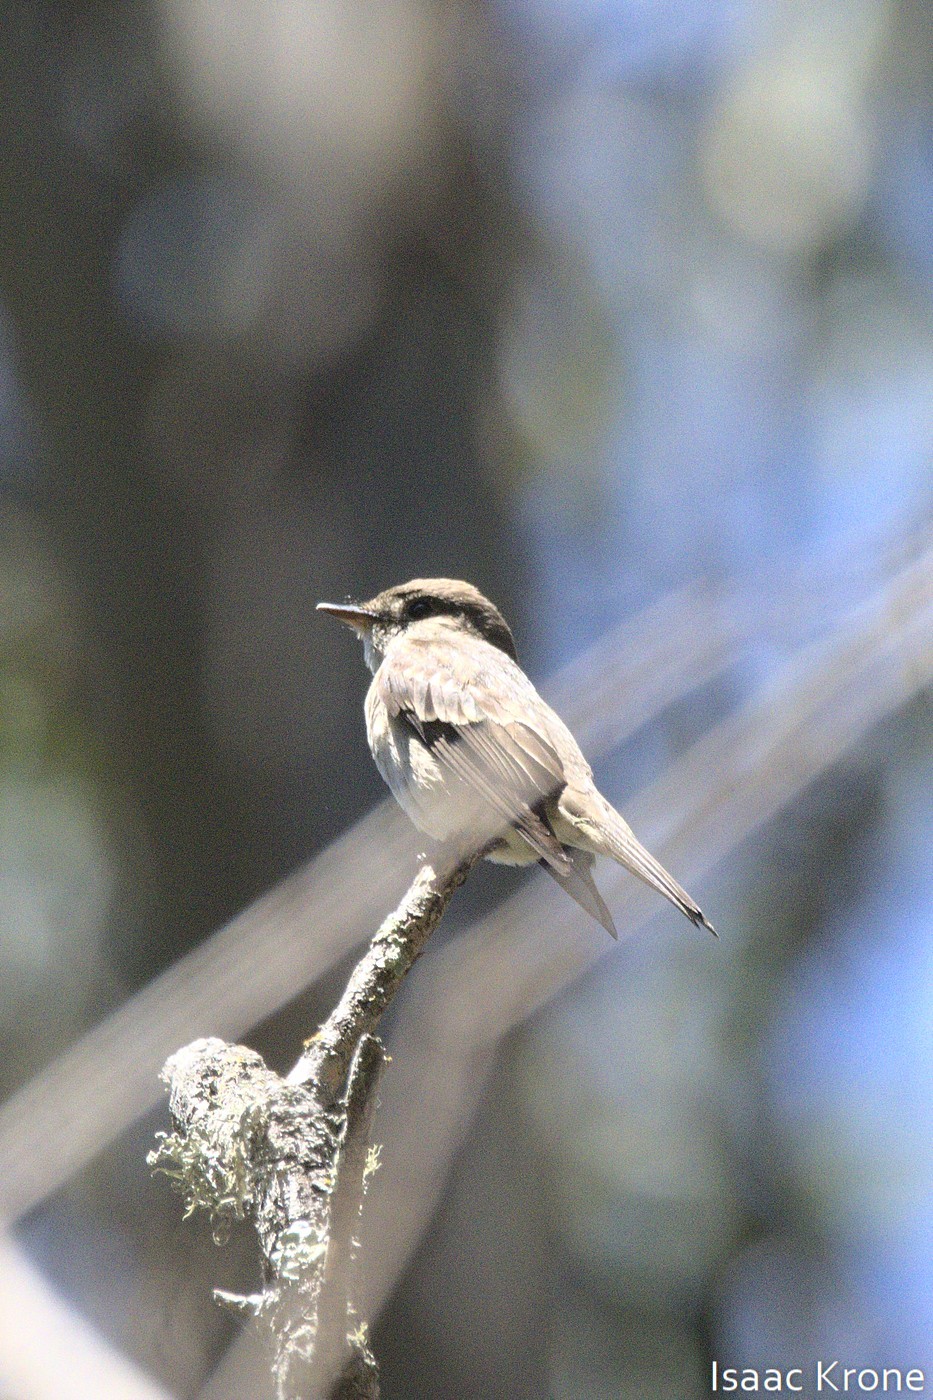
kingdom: Animalia
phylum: Chordata
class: Aves
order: Passeriformes
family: Tyrannidae
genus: Contopus
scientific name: Contopus sordidulus
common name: Western wood-pewee
